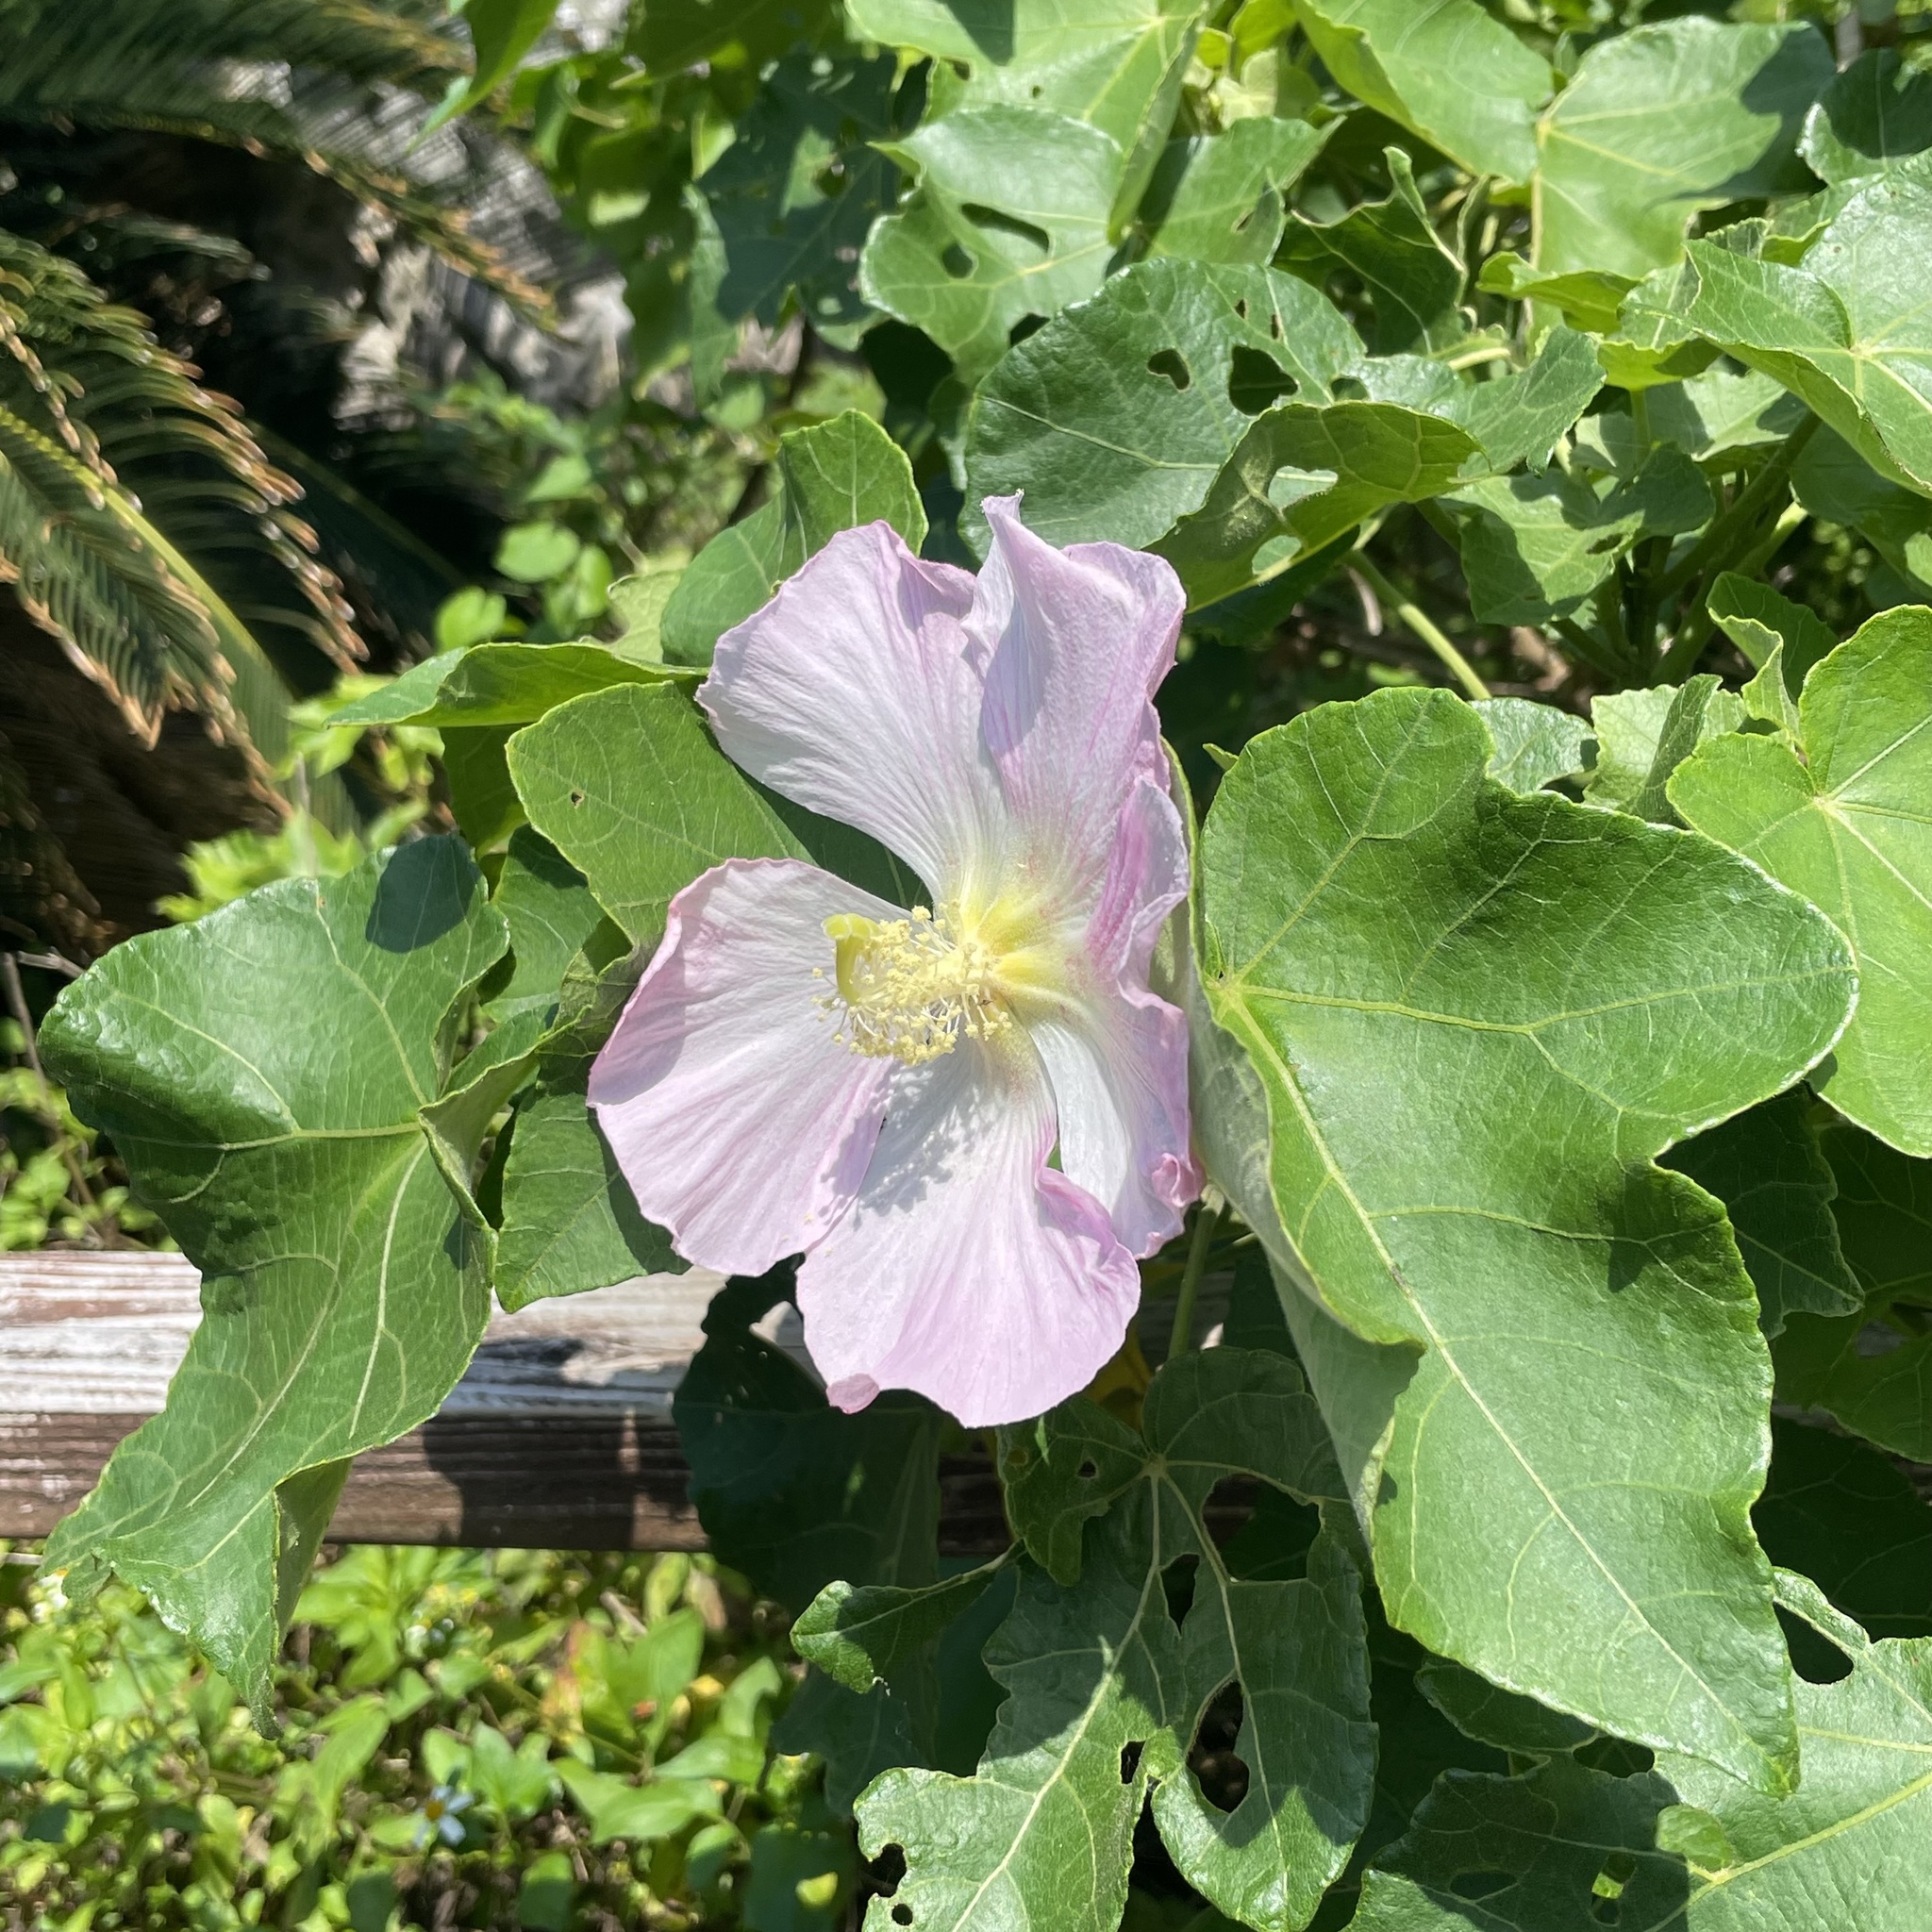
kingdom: Plantae
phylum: Tracheophyta
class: Magnoliopsida
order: Malvales
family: Malvaceae
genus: Hibiscus
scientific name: Hibiscus makinoi
